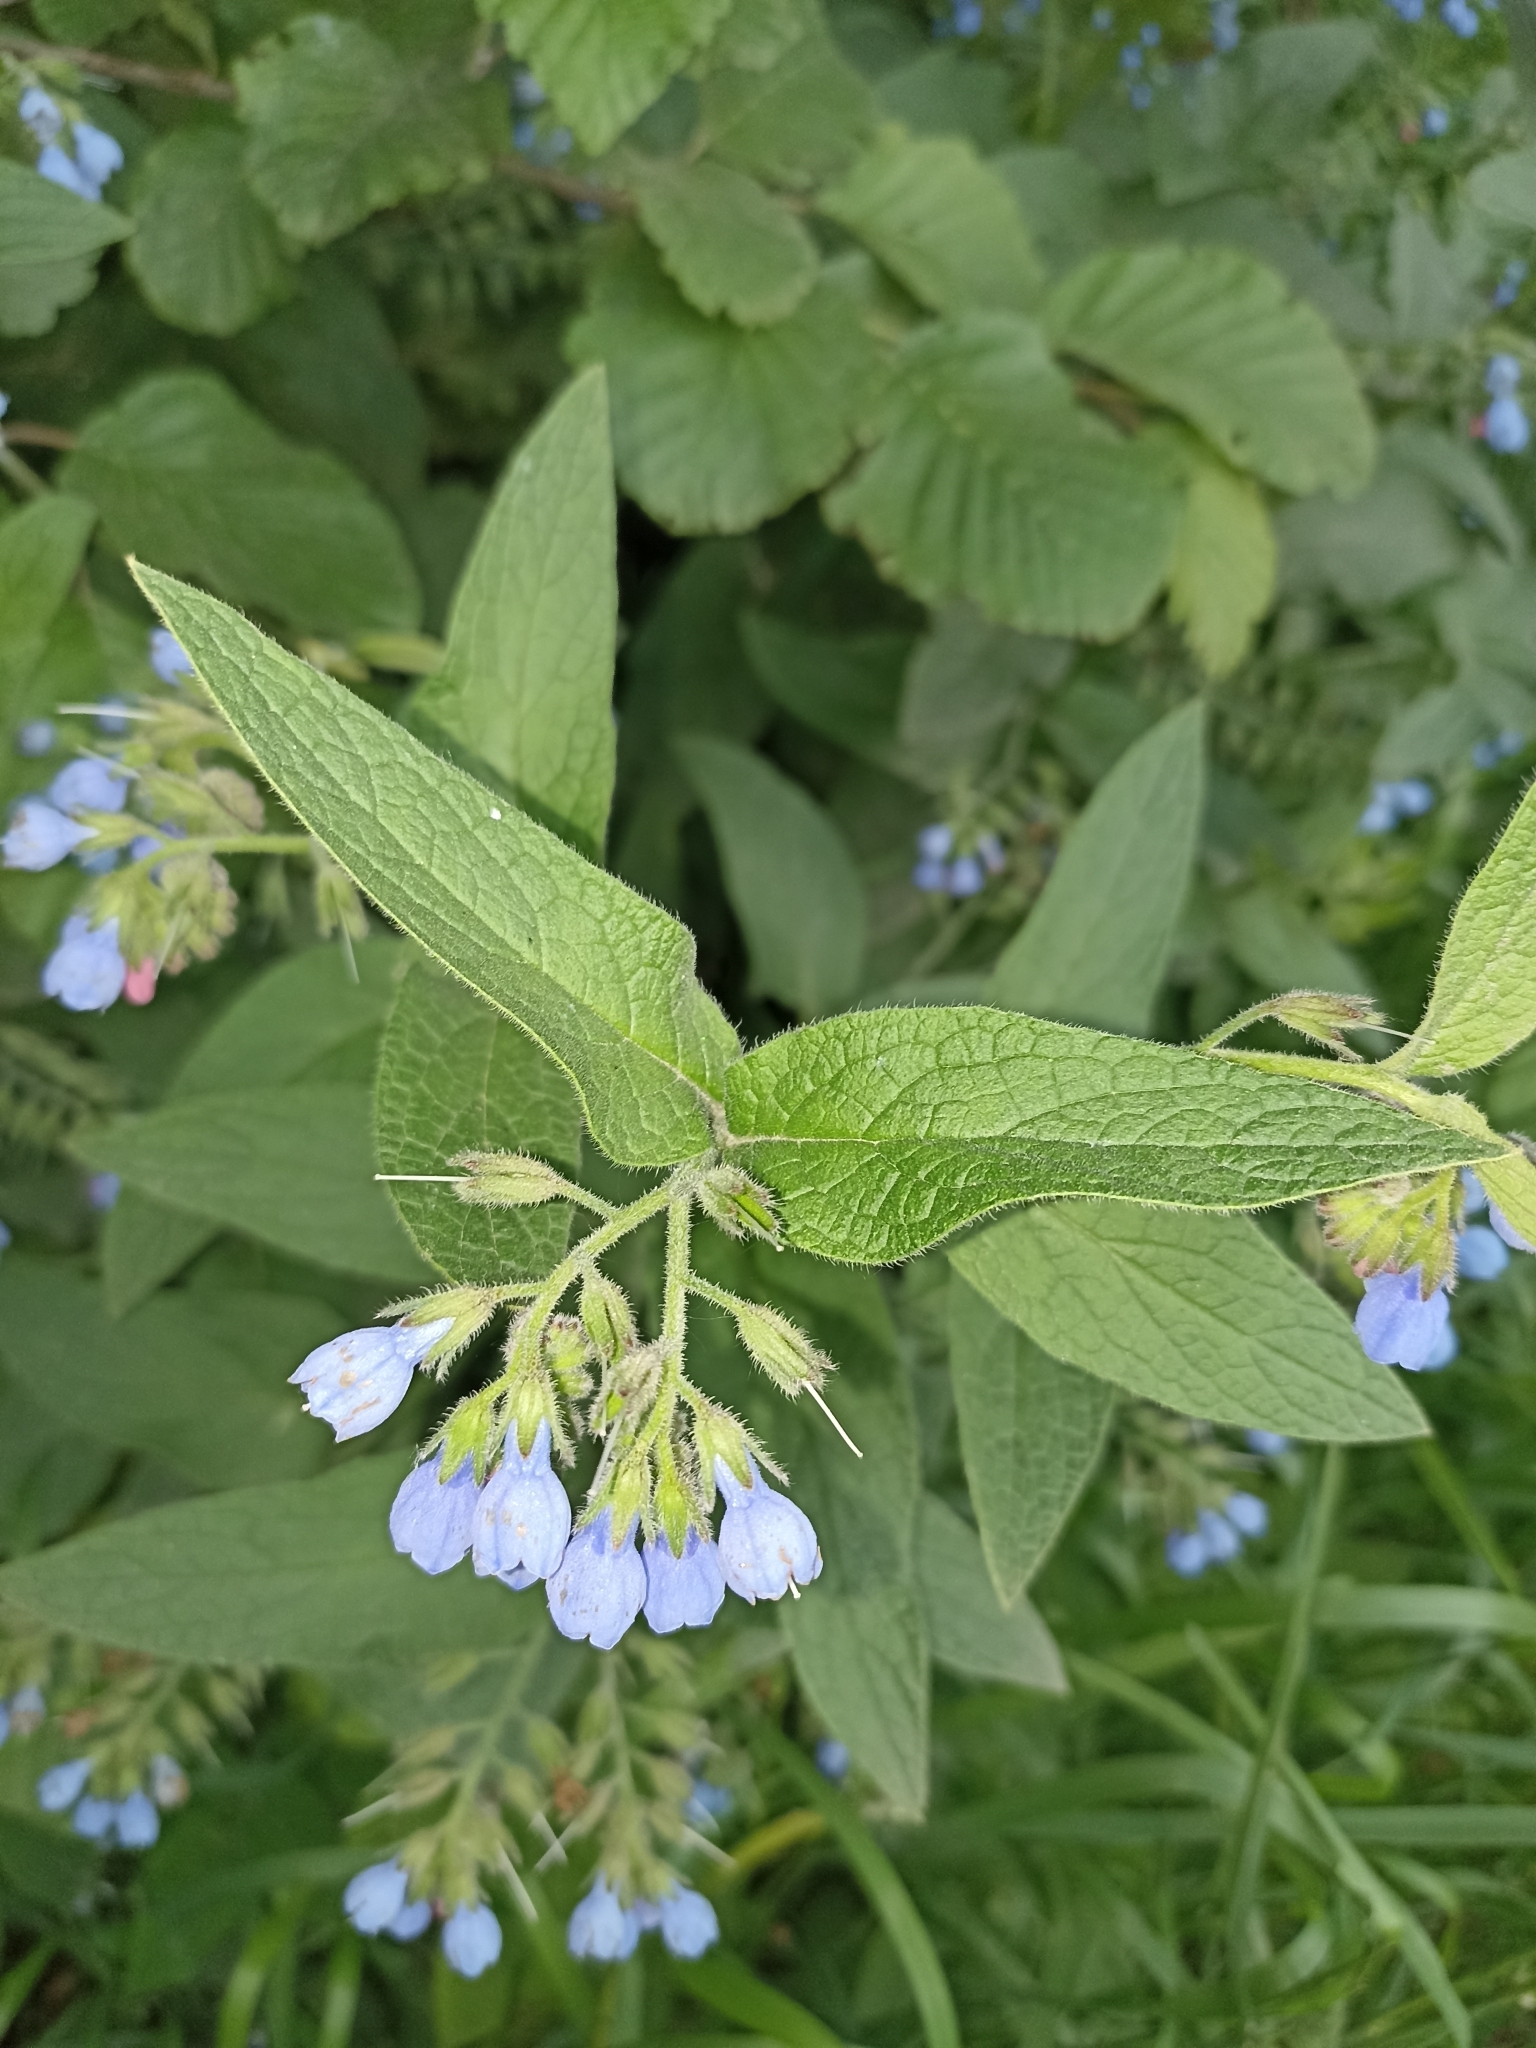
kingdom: Plantae
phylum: Tracheophyta
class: Magnoliopsida
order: Boraginales
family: Boraginaceae
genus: Symphytum
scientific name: Symphytum caucasicum
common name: Caucasian comfrey
